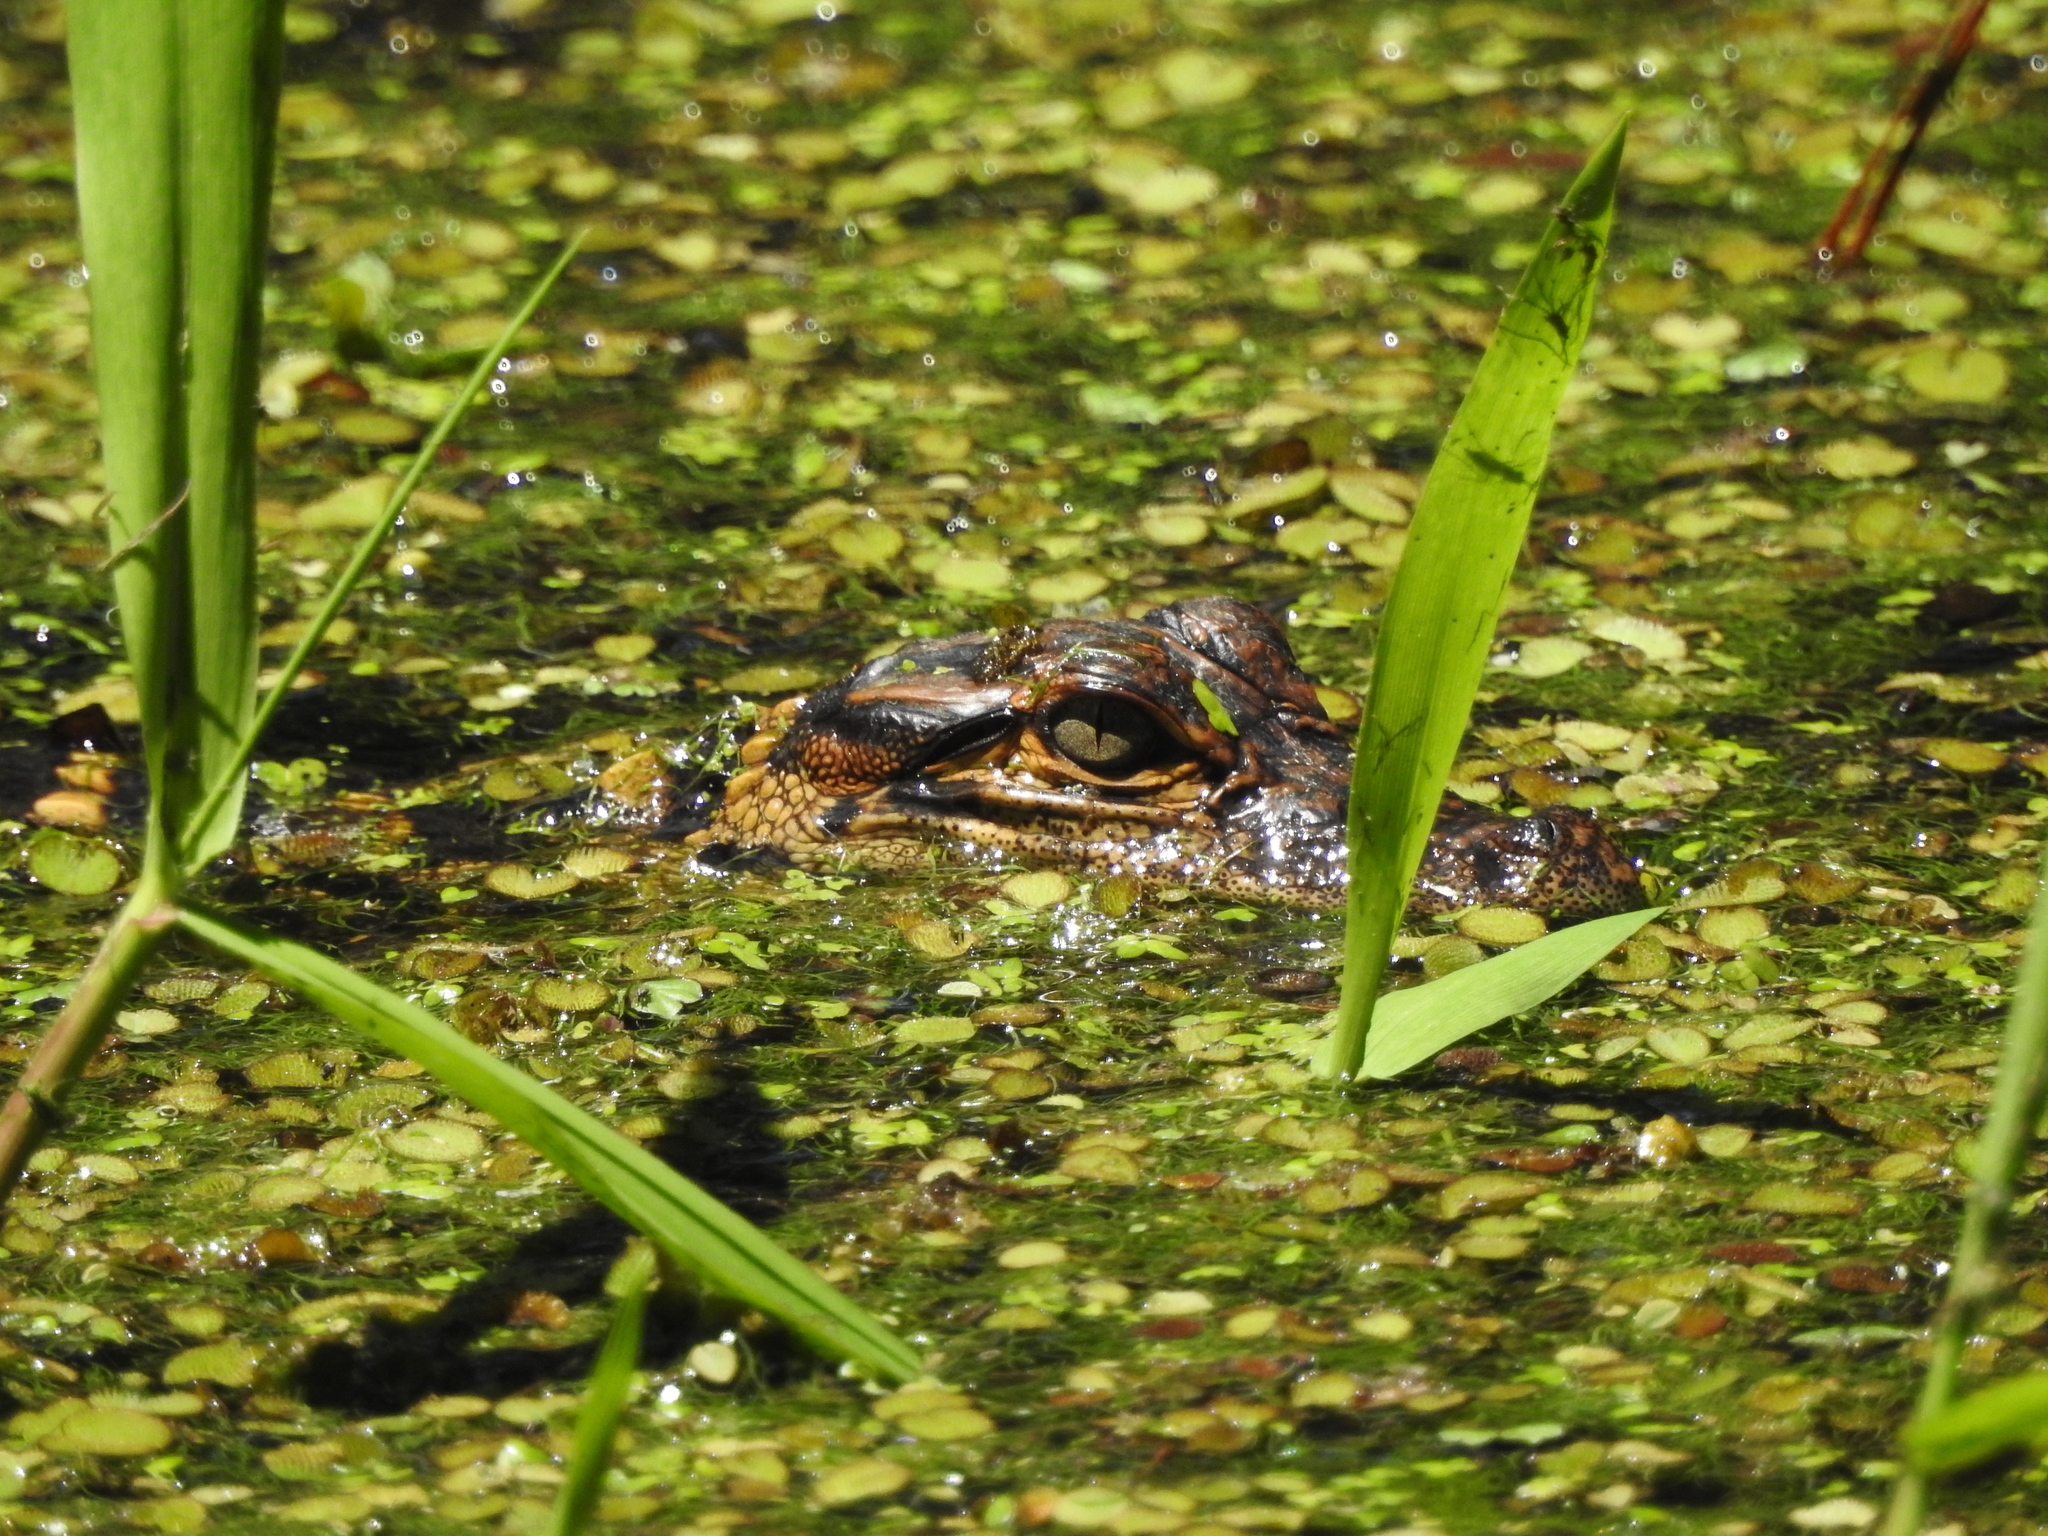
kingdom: Animalia
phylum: Chordata
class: Crocodylia
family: Alligatoridae
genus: Alligator
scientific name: Alligator mississippiensis
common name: American alligator
